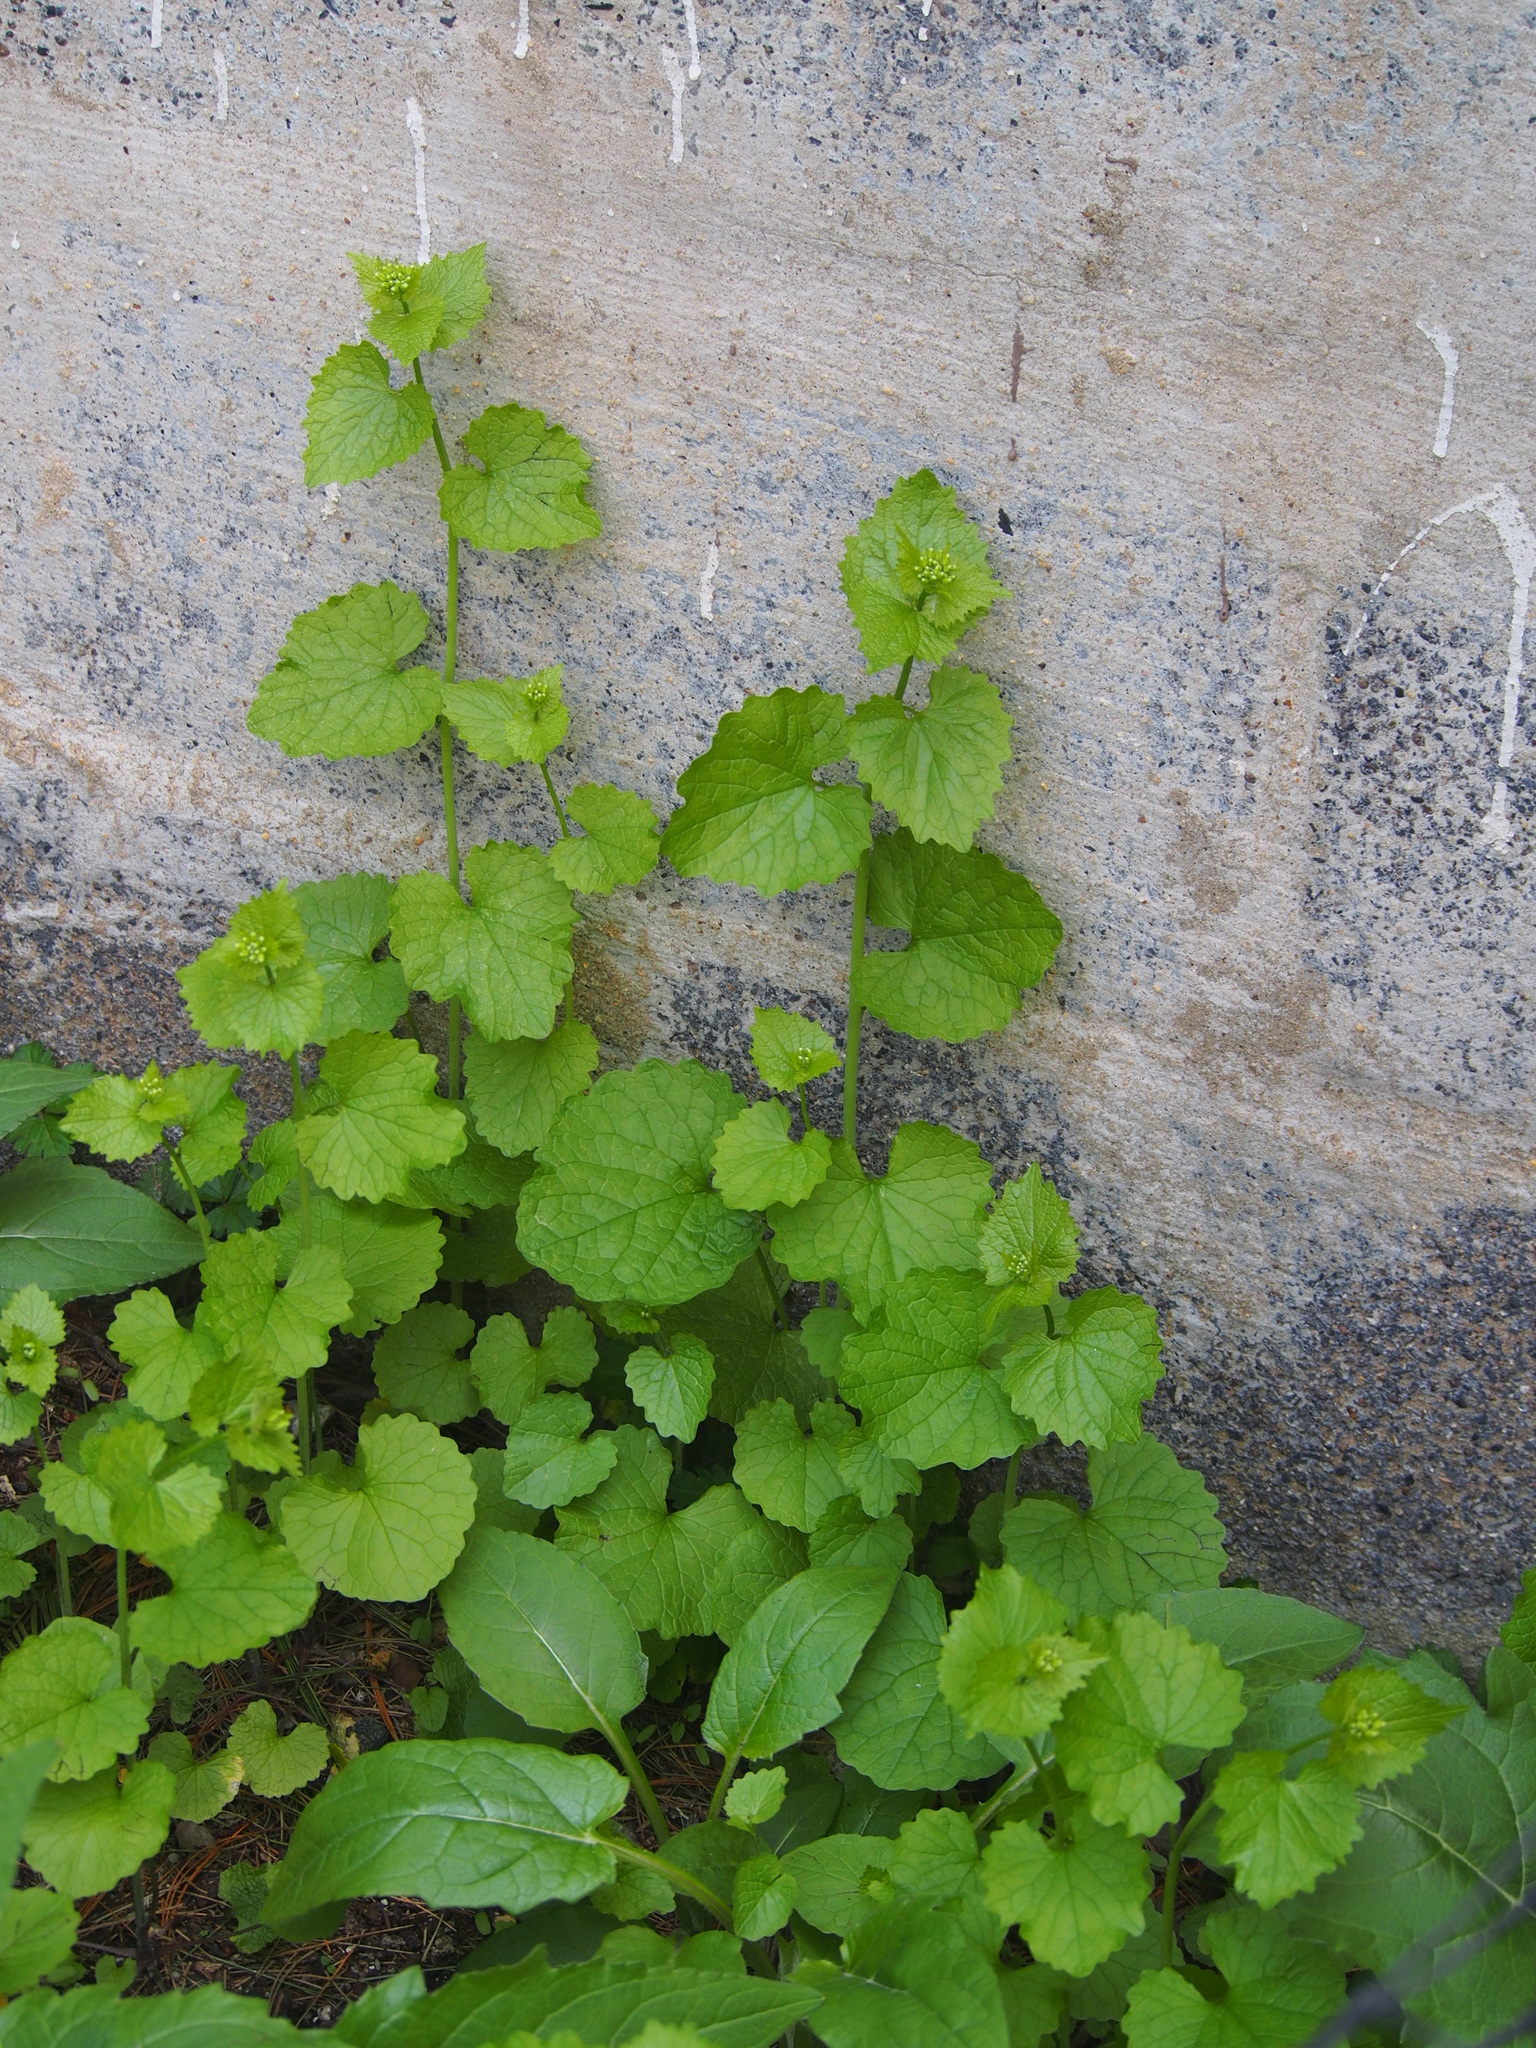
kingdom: Plantae
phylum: Tracheophyta
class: Magnoliopsida
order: Brassicales
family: Brassicaceae
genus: Alliaria
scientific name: Alliaria petiolata
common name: Garlic mustard
